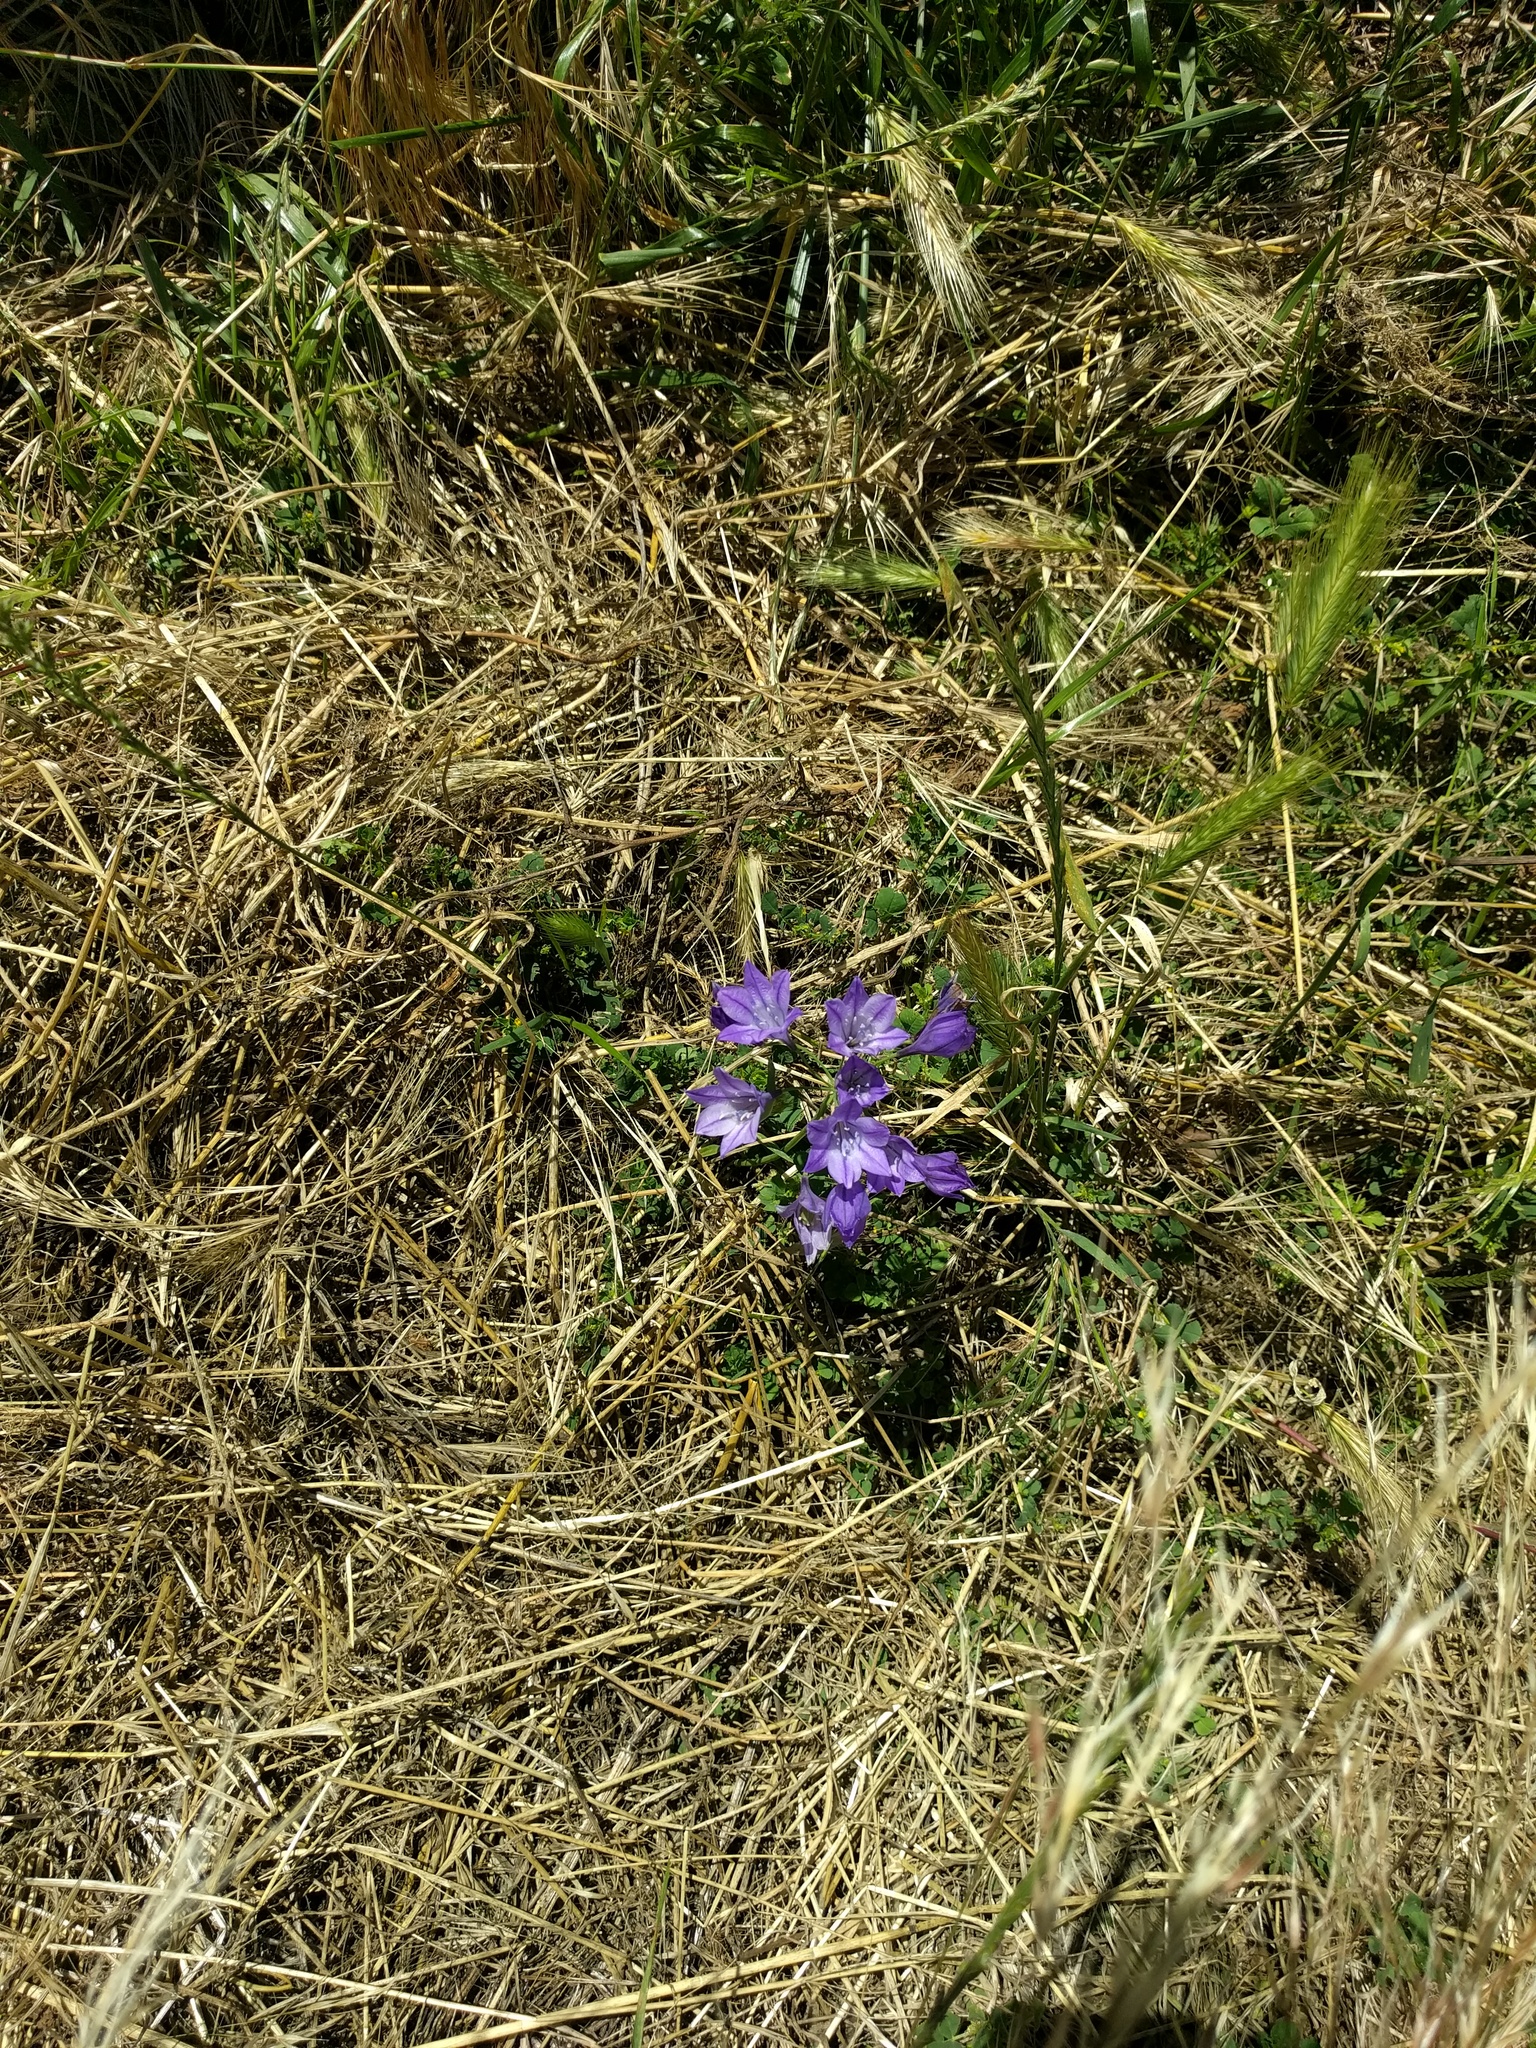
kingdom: Plantae
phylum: Tracheophyta
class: Liliopsida
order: Asparagales
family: Asparagaceae
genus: Triteleia
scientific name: Triteleia laxa
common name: Triplet-lily
